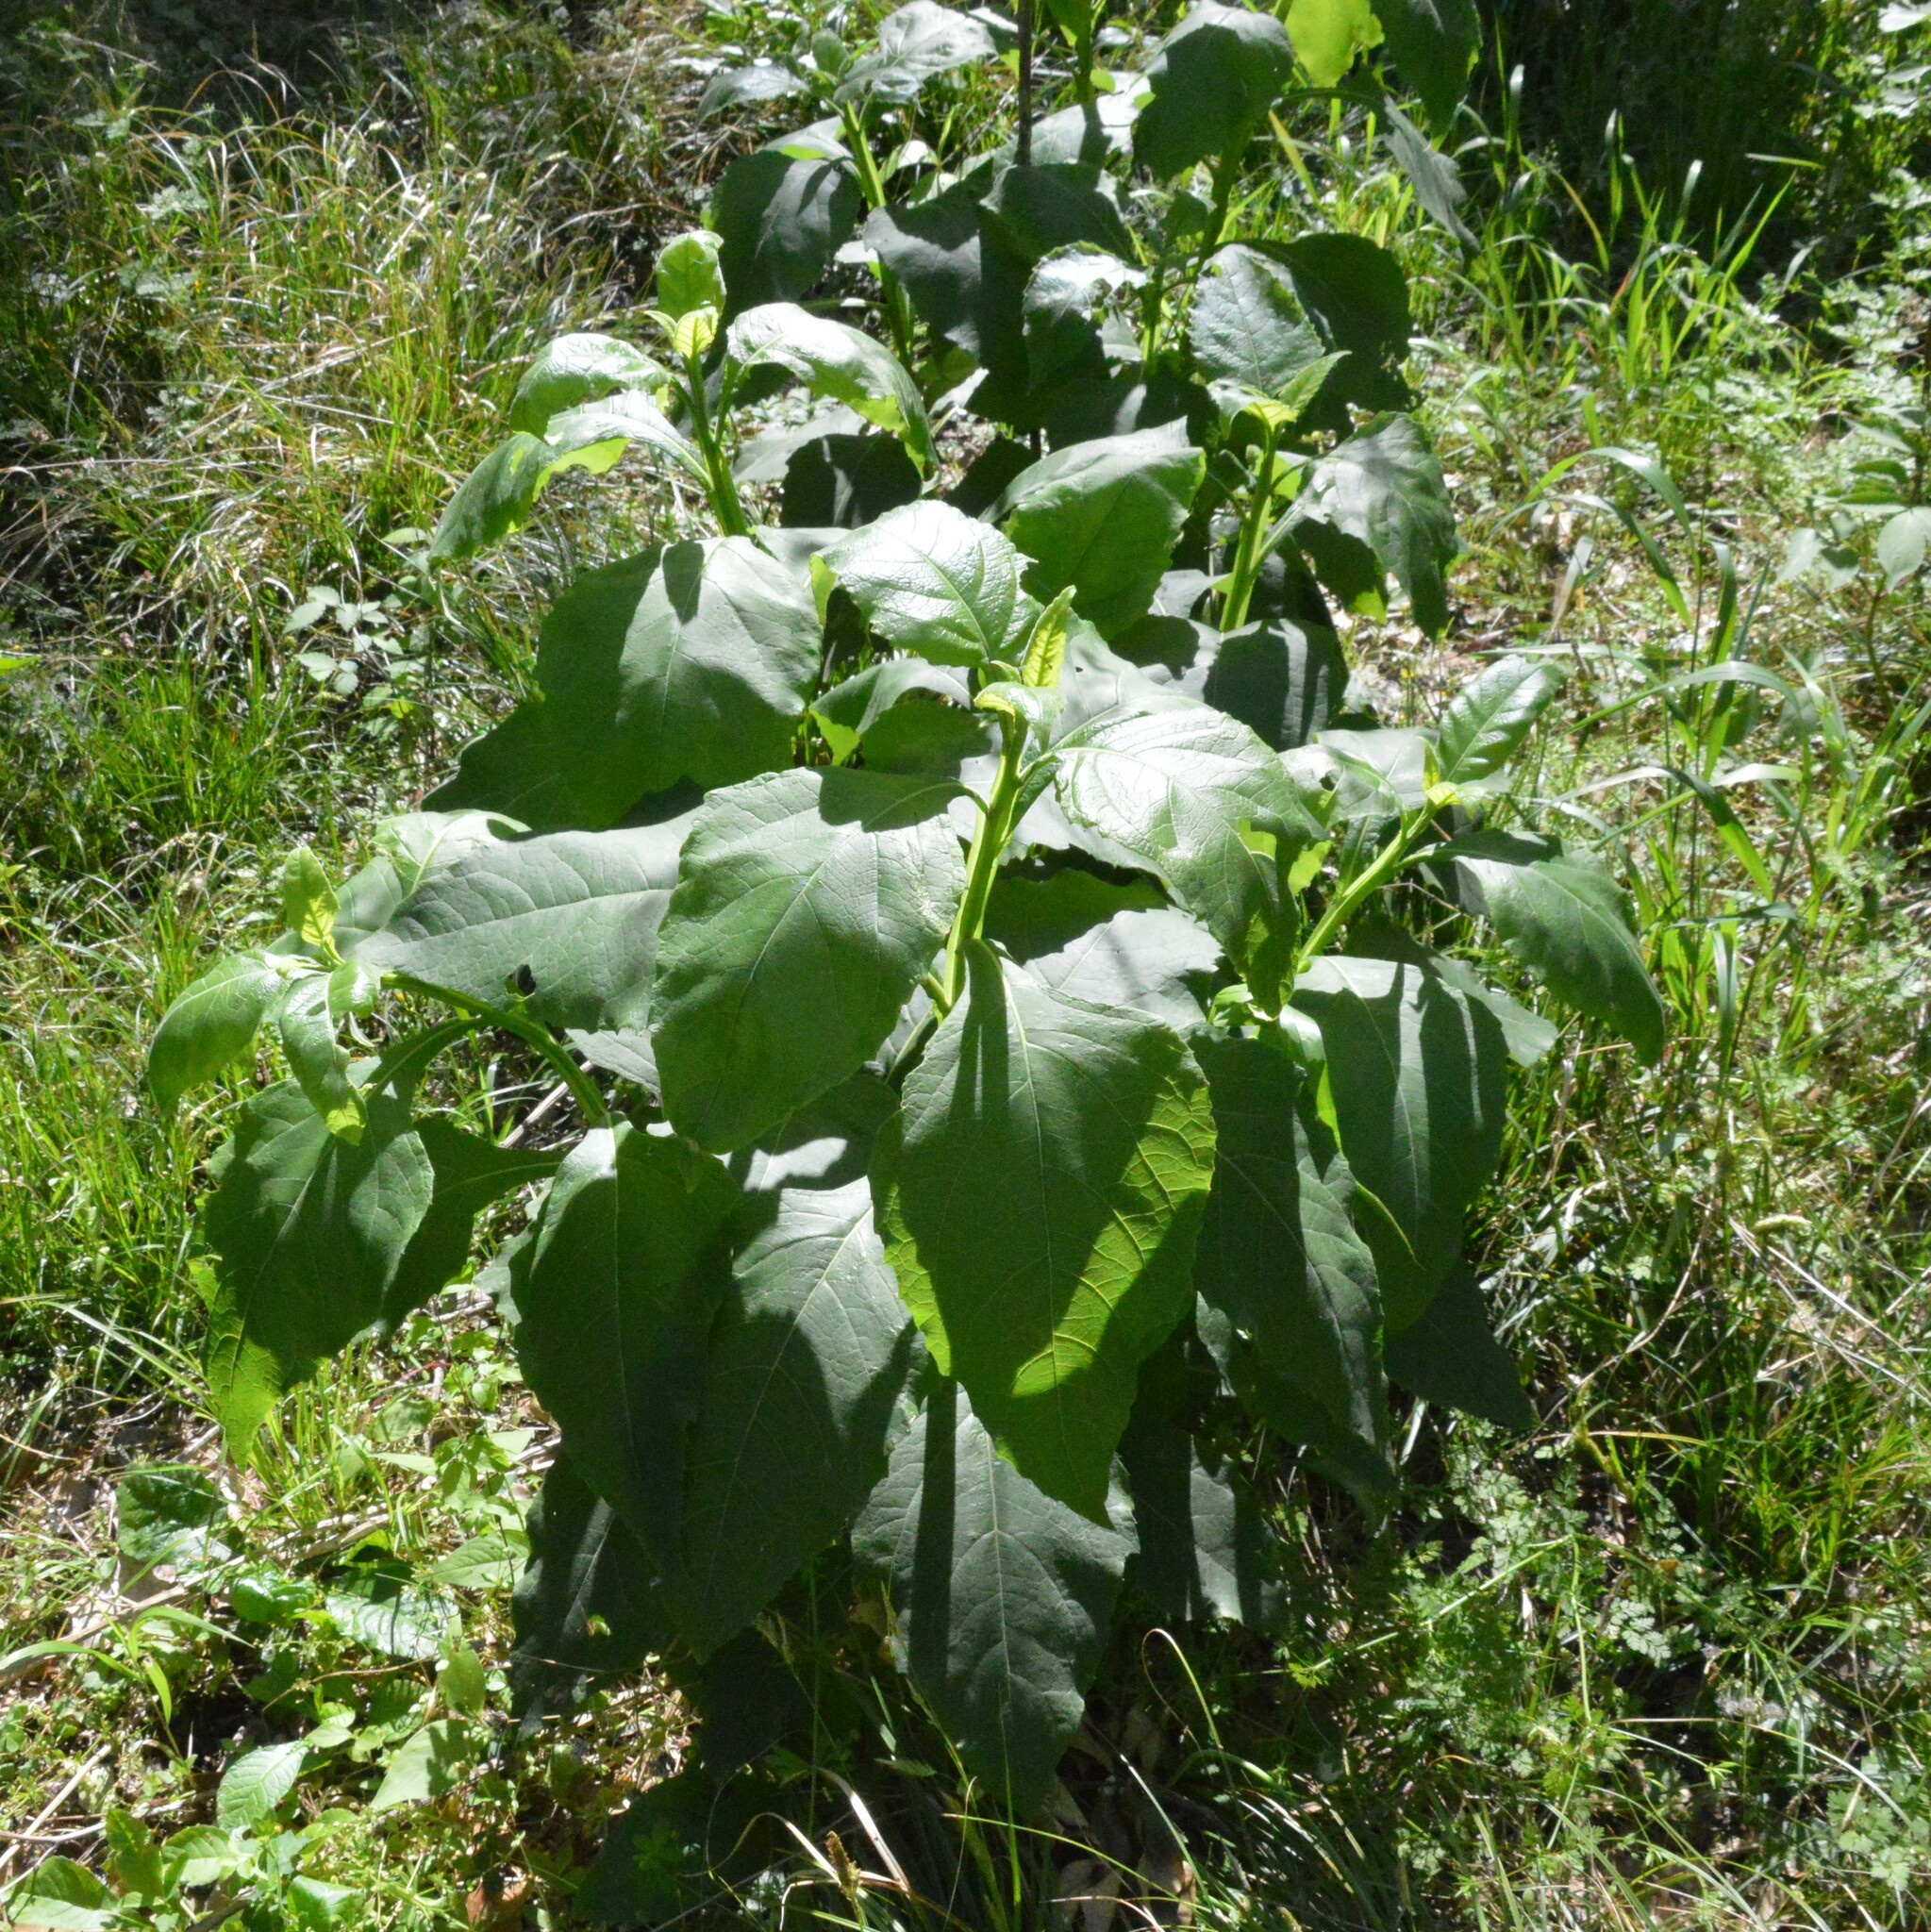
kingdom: Plantae
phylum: Tracheophyta
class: Magnoliopsida
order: Asterales
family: Asteraceae
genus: Verbesina
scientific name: Verbesina virginica
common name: Frostweed
